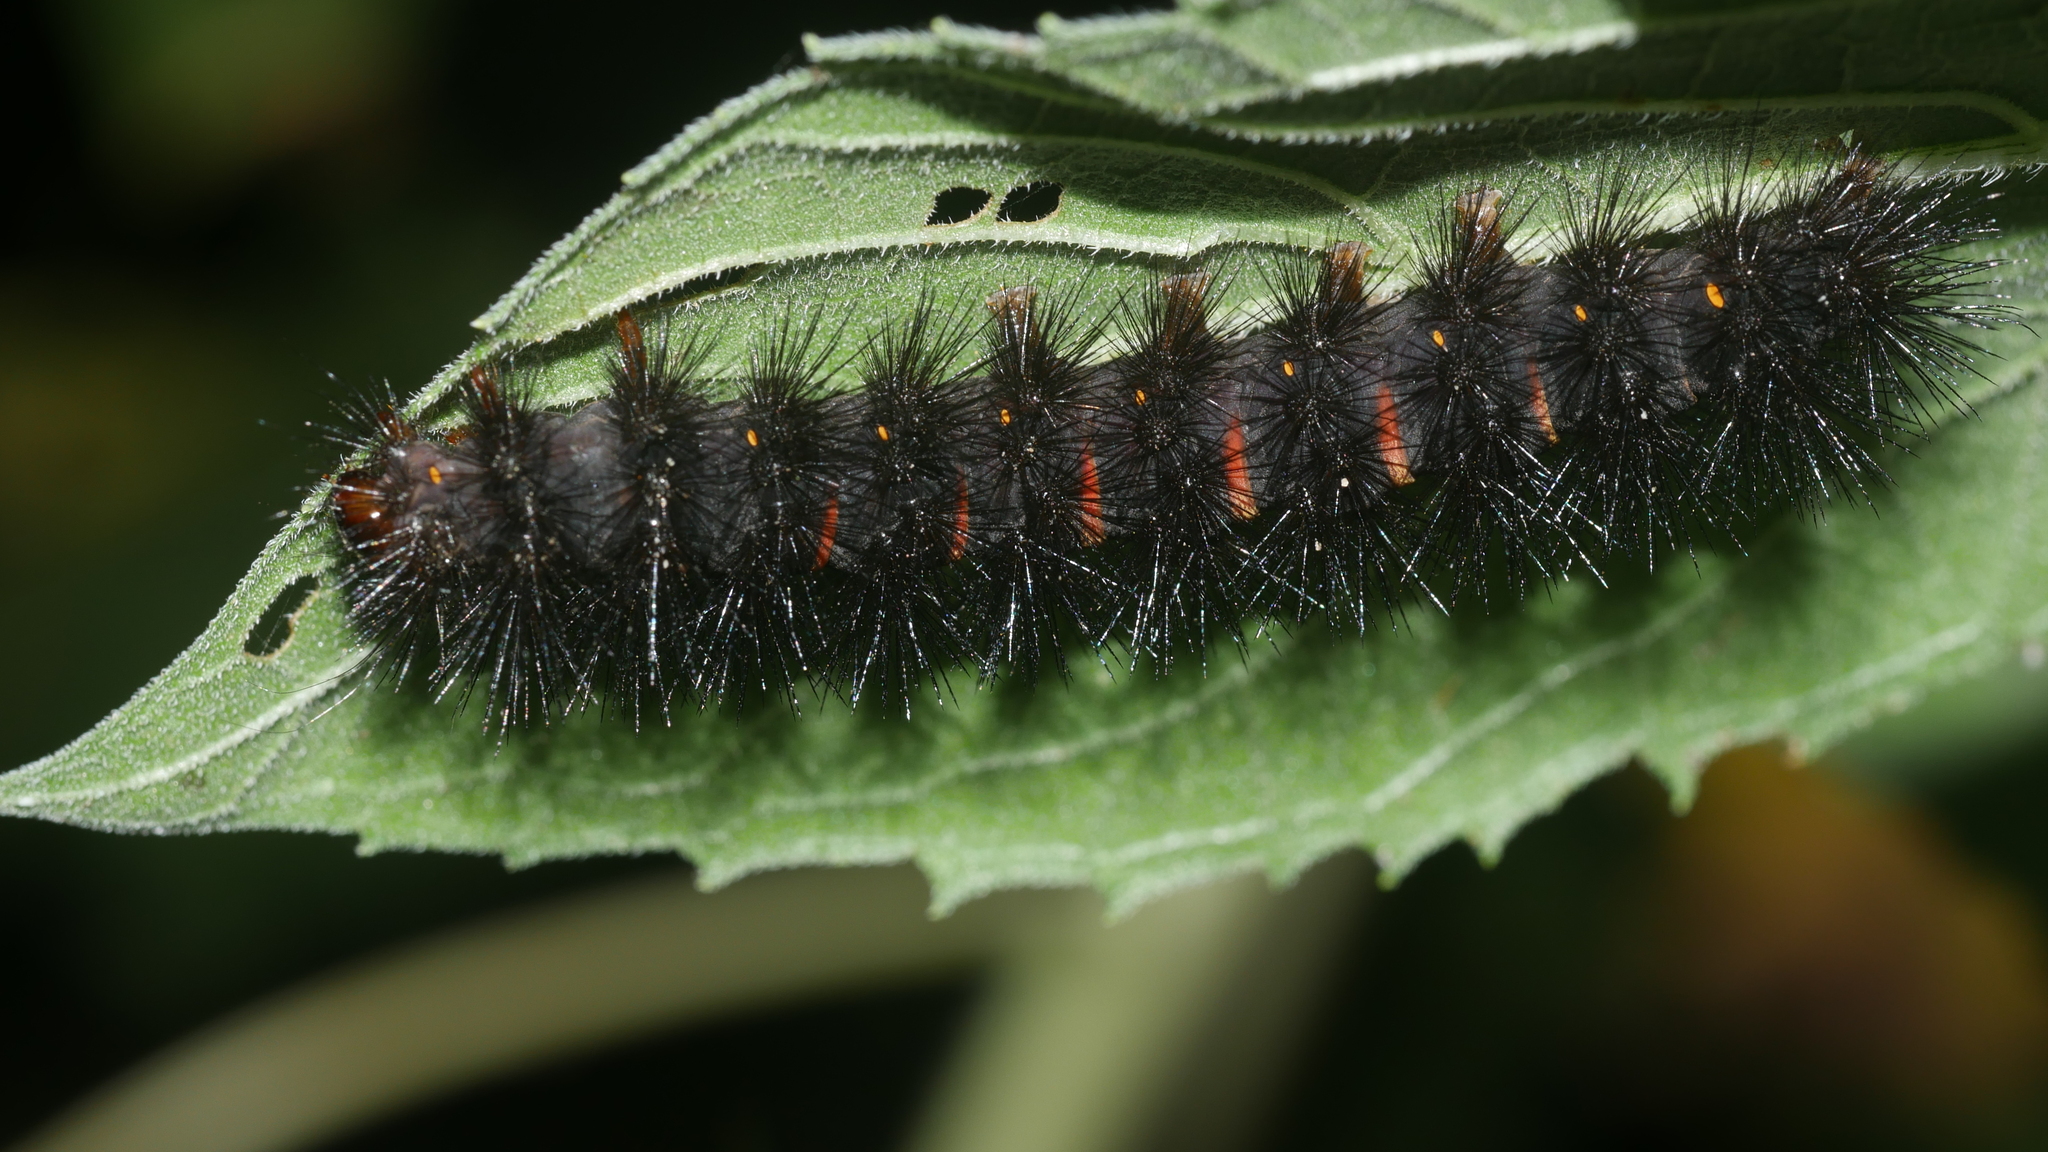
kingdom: Animalia
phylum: Arthropoda
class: Insecta
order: Lepidoptera
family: Erebidae
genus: Hypercompe
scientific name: Hypercompe scribonia
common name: Giant leopard moth
